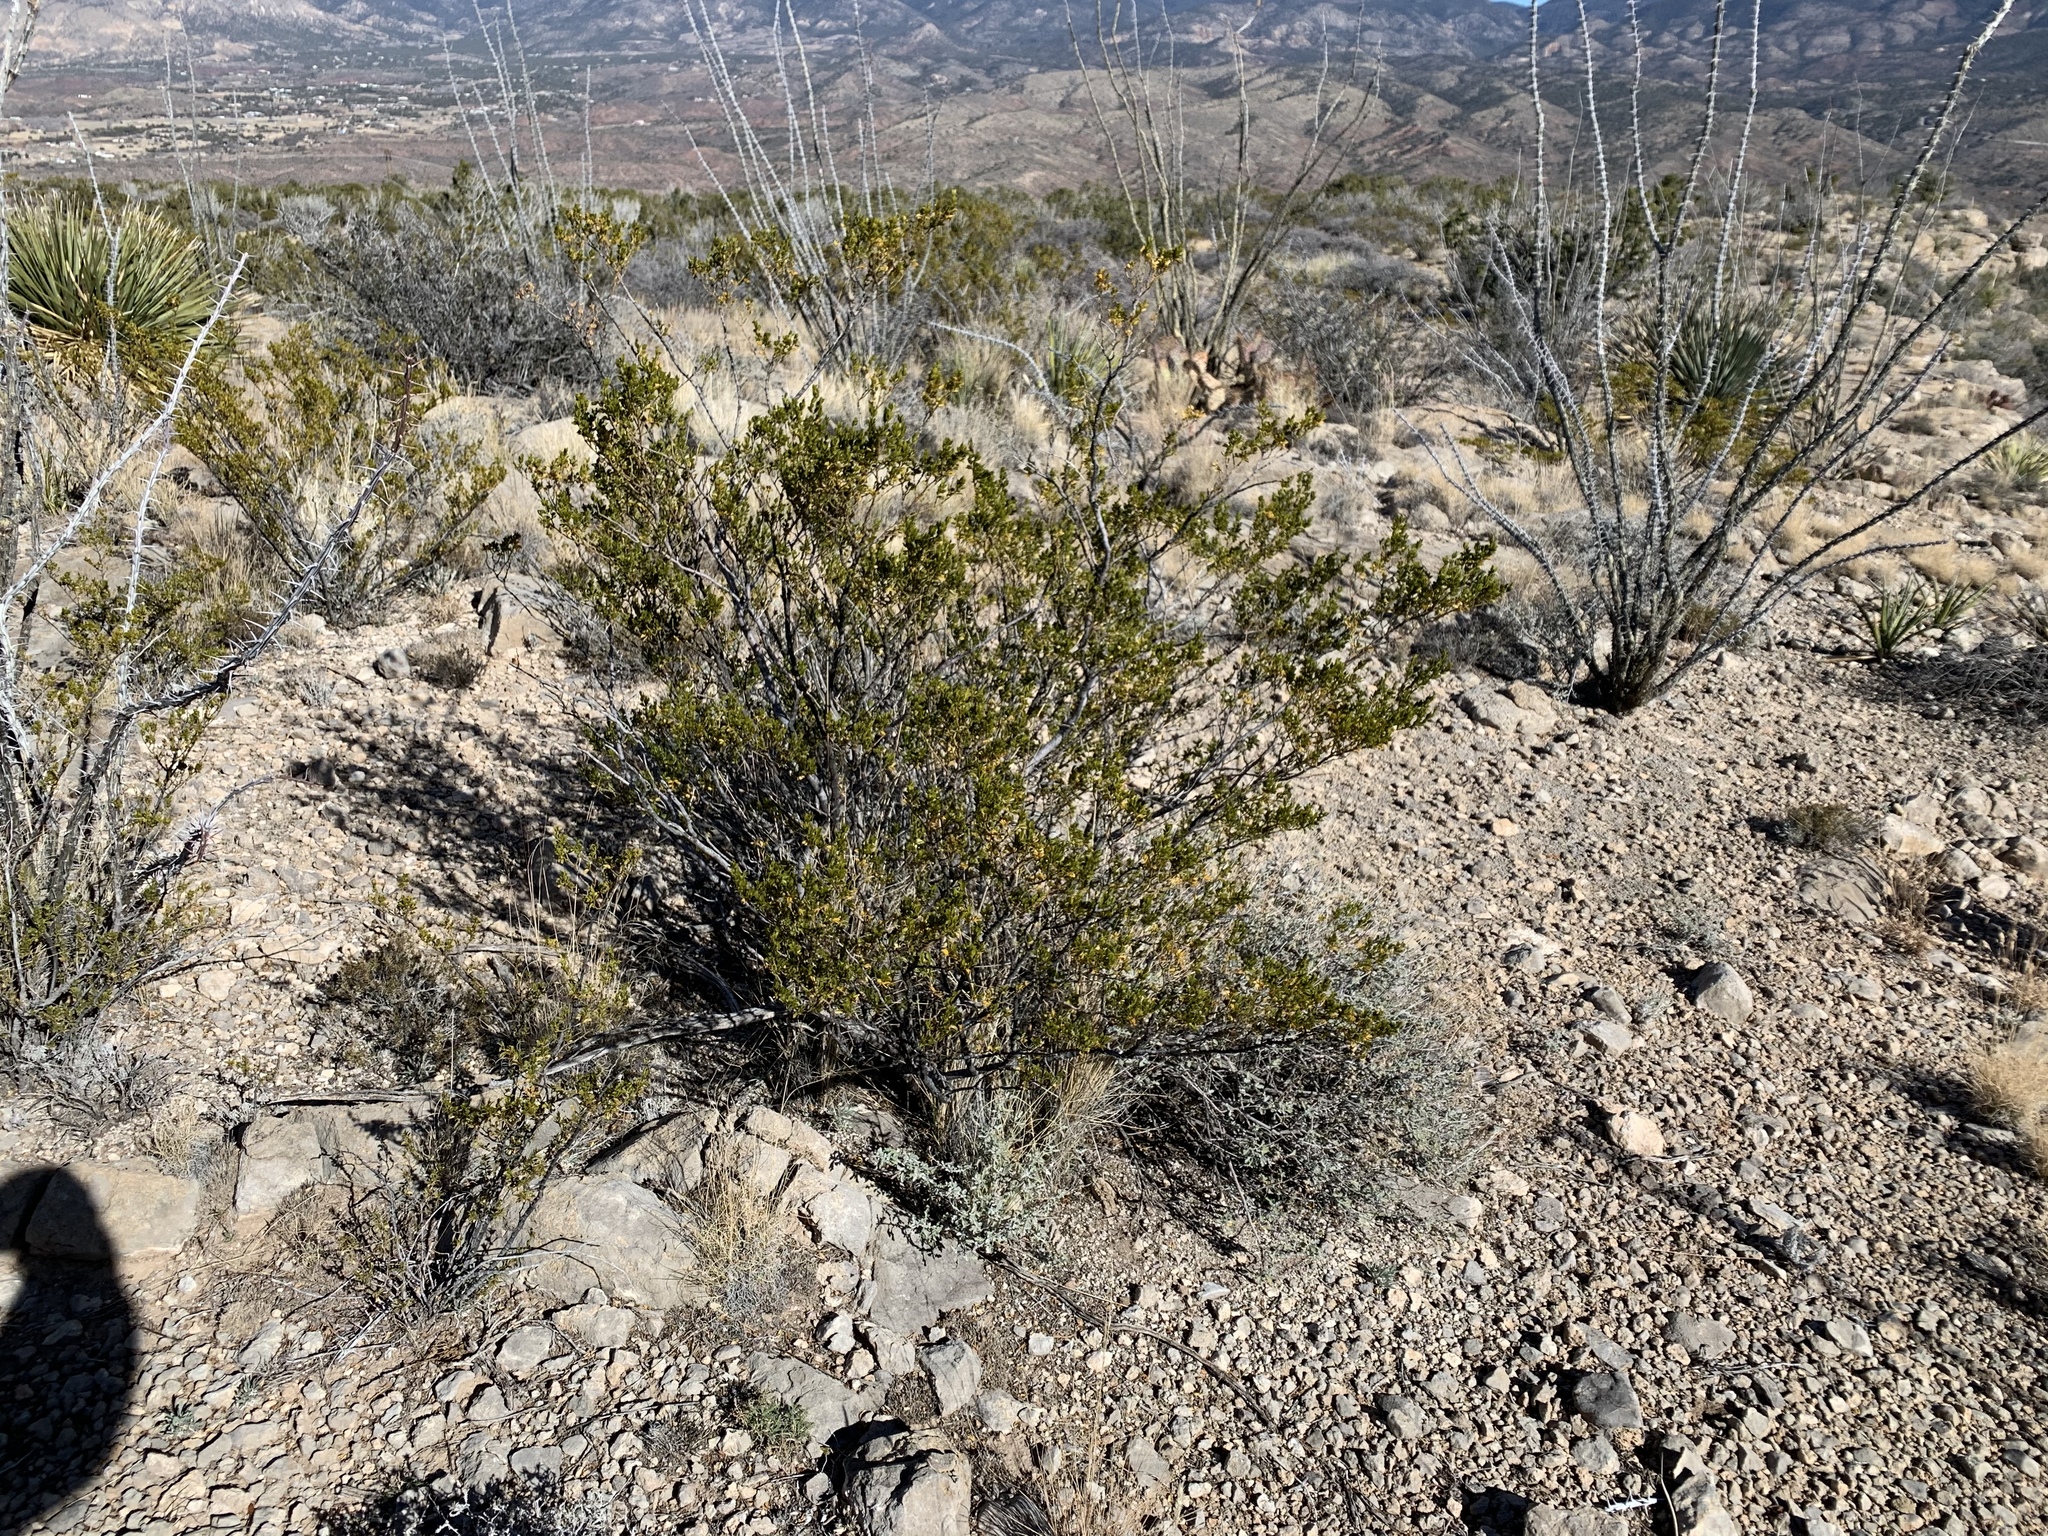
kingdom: Plantae
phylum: Tracheophyta
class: Magnoliopsida
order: Zygophyllales
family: Zygophyllaceae
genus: Larrea
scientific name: Larrea tridentata
